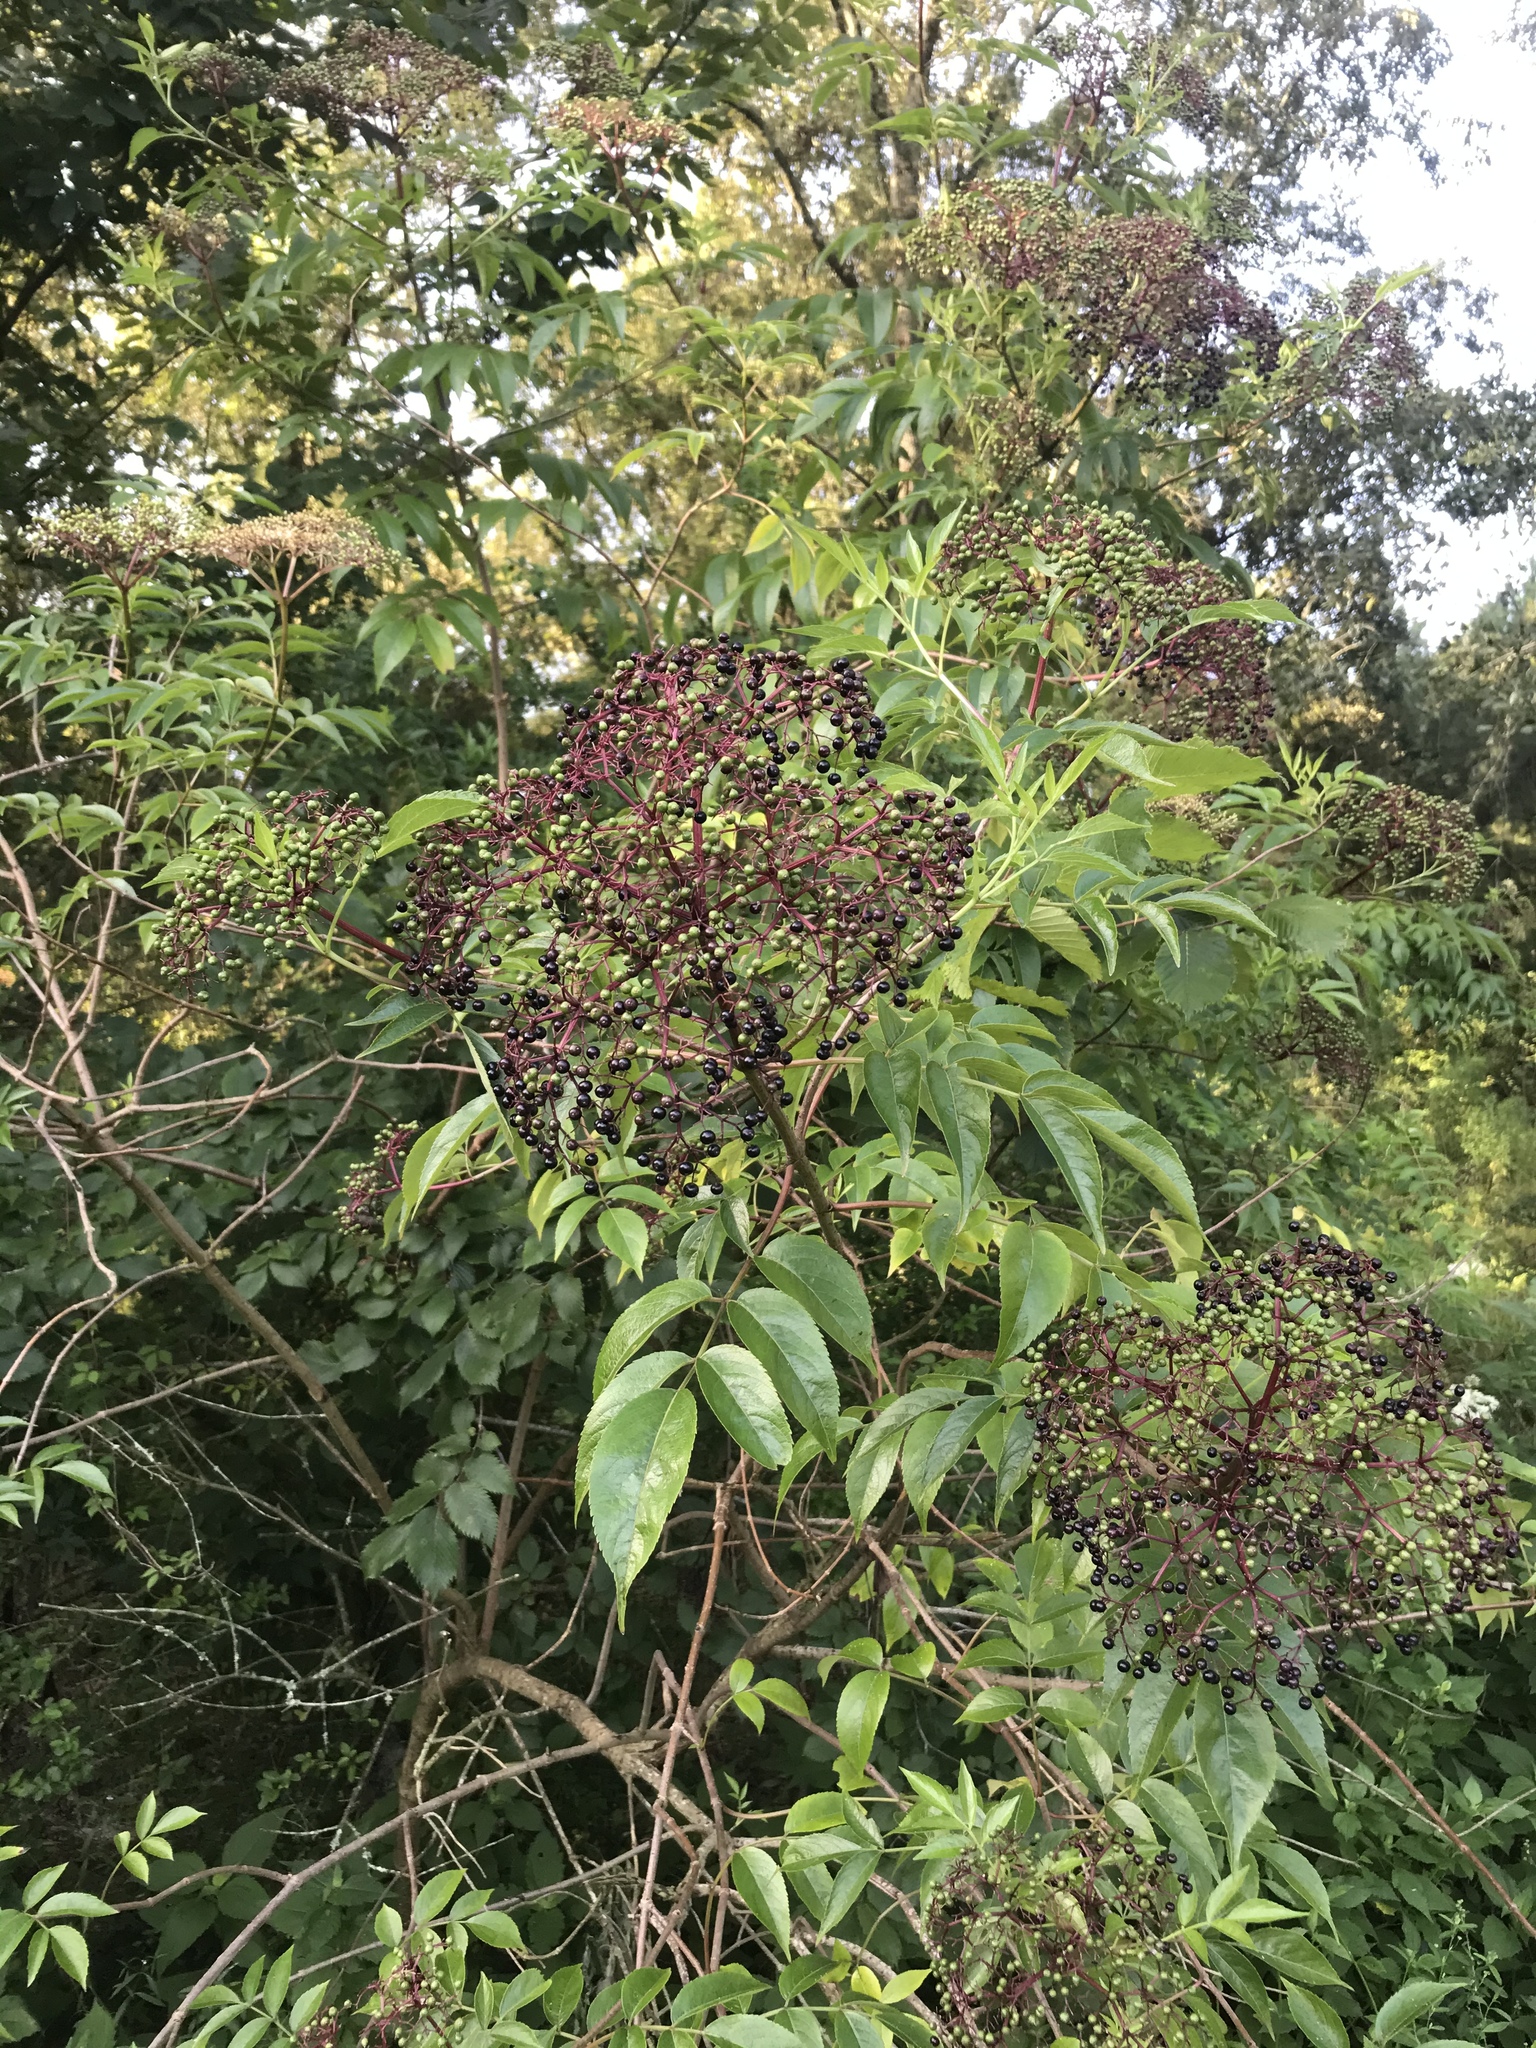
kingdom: Plantae
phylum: Tracheophyta
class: Magnoliopsida
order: Dipsacales
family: Viburnaceae
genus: Sambucus
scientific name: Sambucus canadensis
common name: American elder
